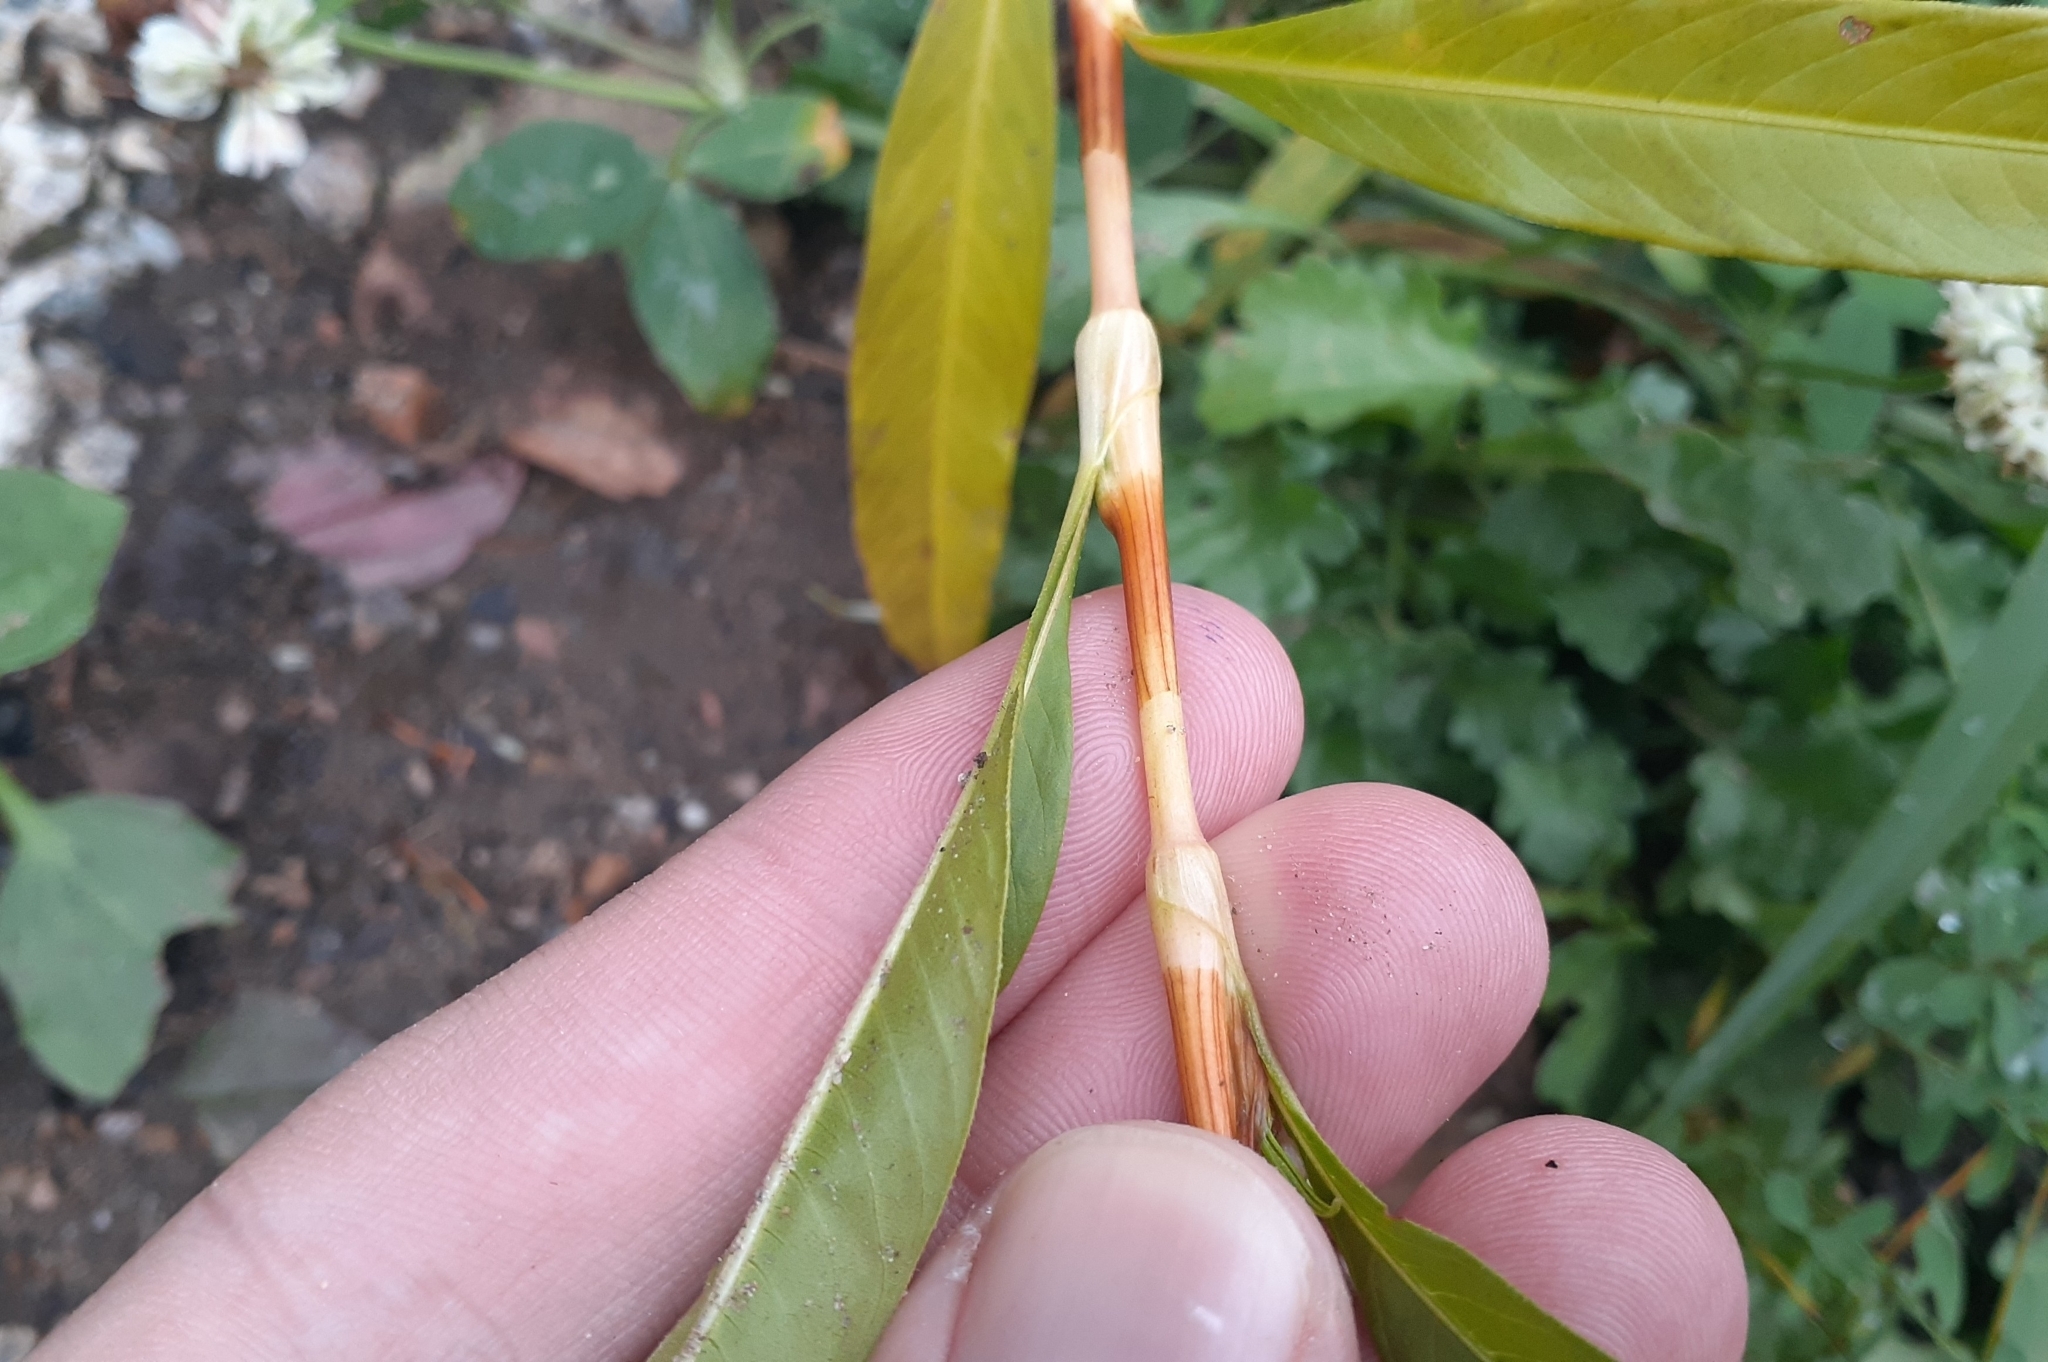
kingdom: Plantae
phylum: Tracheophyta
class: Magnoliopsida
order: Caryophyllales
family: Polygonaceae
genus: Persicaria
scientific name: Persicaria lapathifolia
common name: Curlytop knotweed
